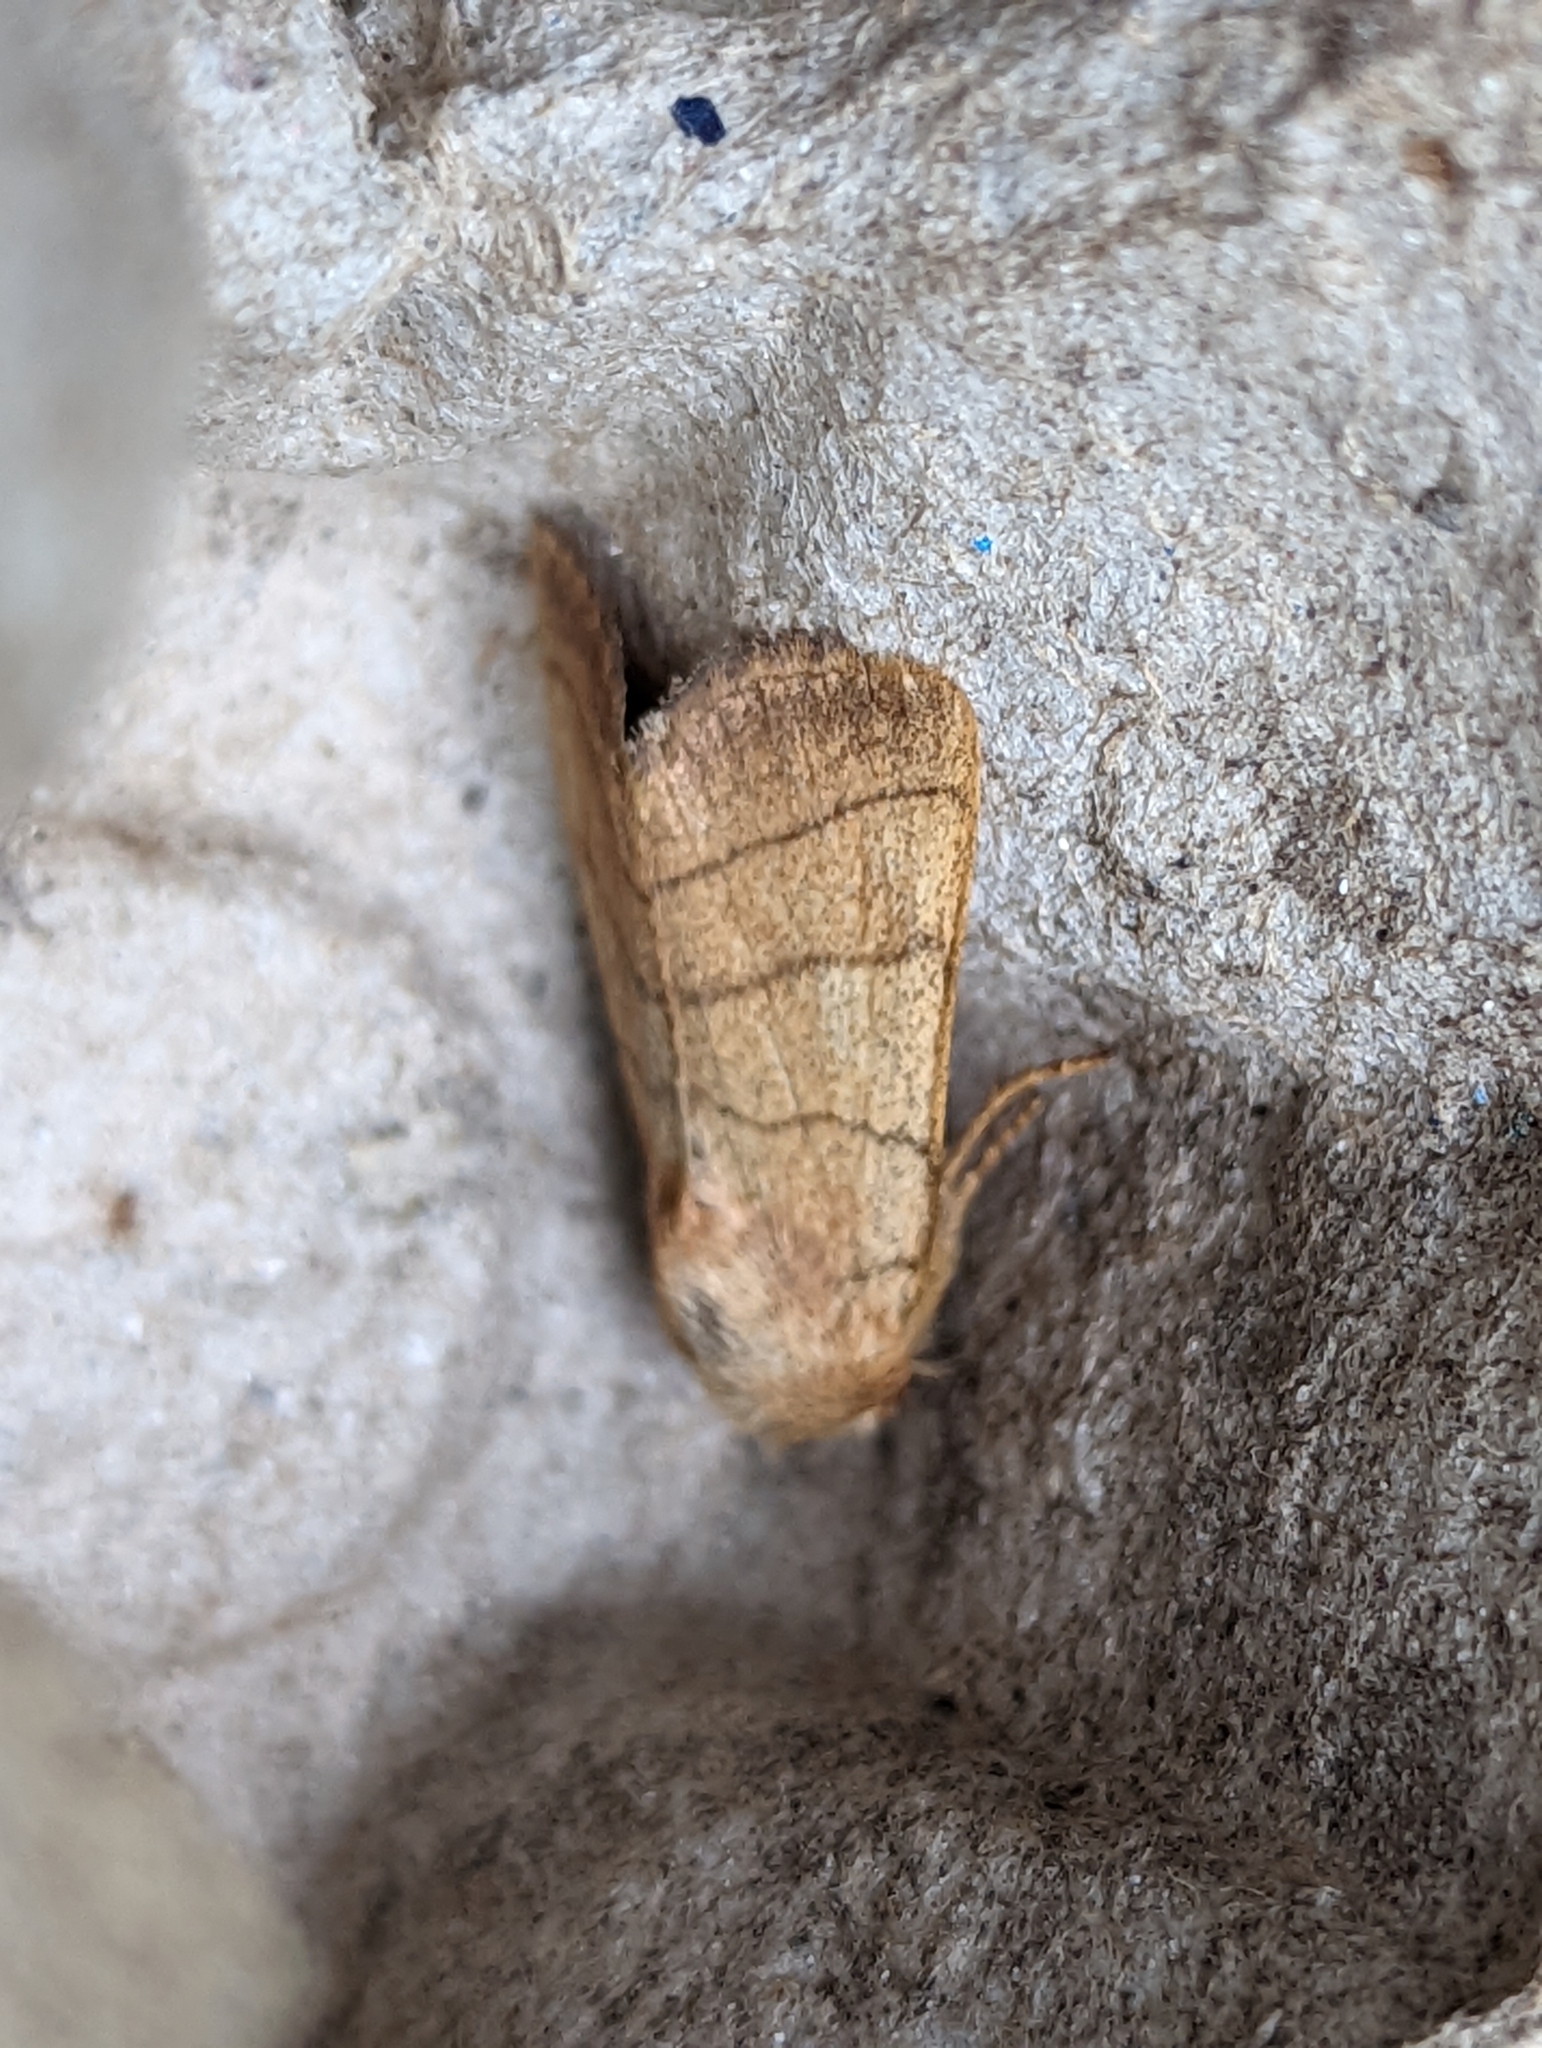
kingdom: Animalia
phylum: Arthropoda
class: Insecta
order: Lepidoptera
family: Noctuidae
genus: Charanyca
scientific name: Charanyca trigrammica
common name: Treble lines
